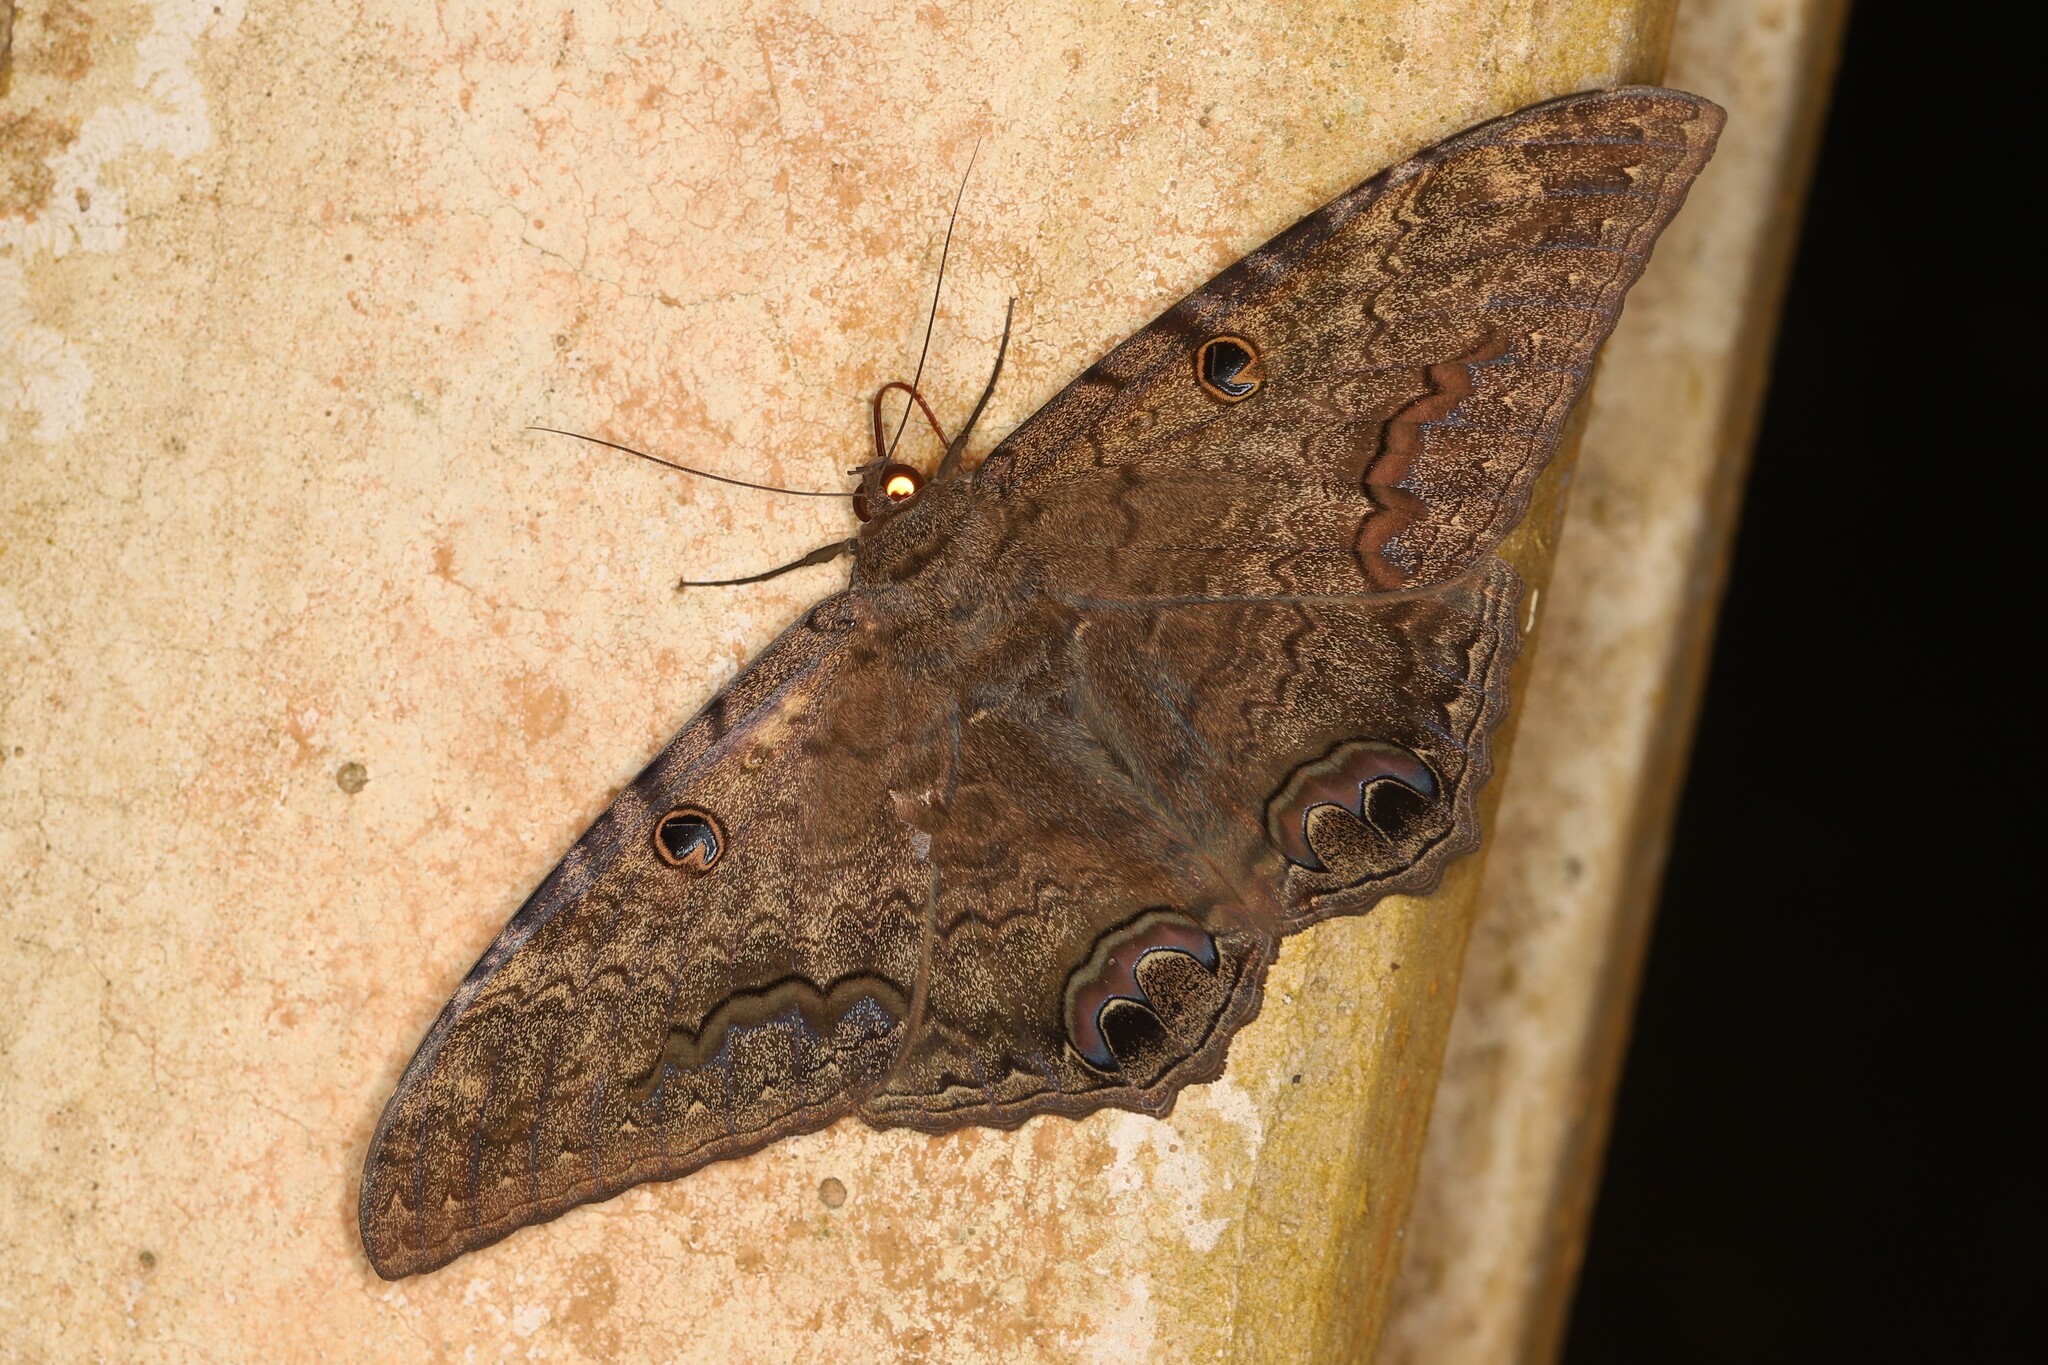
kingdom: Animalia
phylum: Arthropoda
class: Insecta
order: Lepidoptera
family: Erebidae
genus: Ascalapha
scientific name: Ascalapha odorata
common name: Black witch
